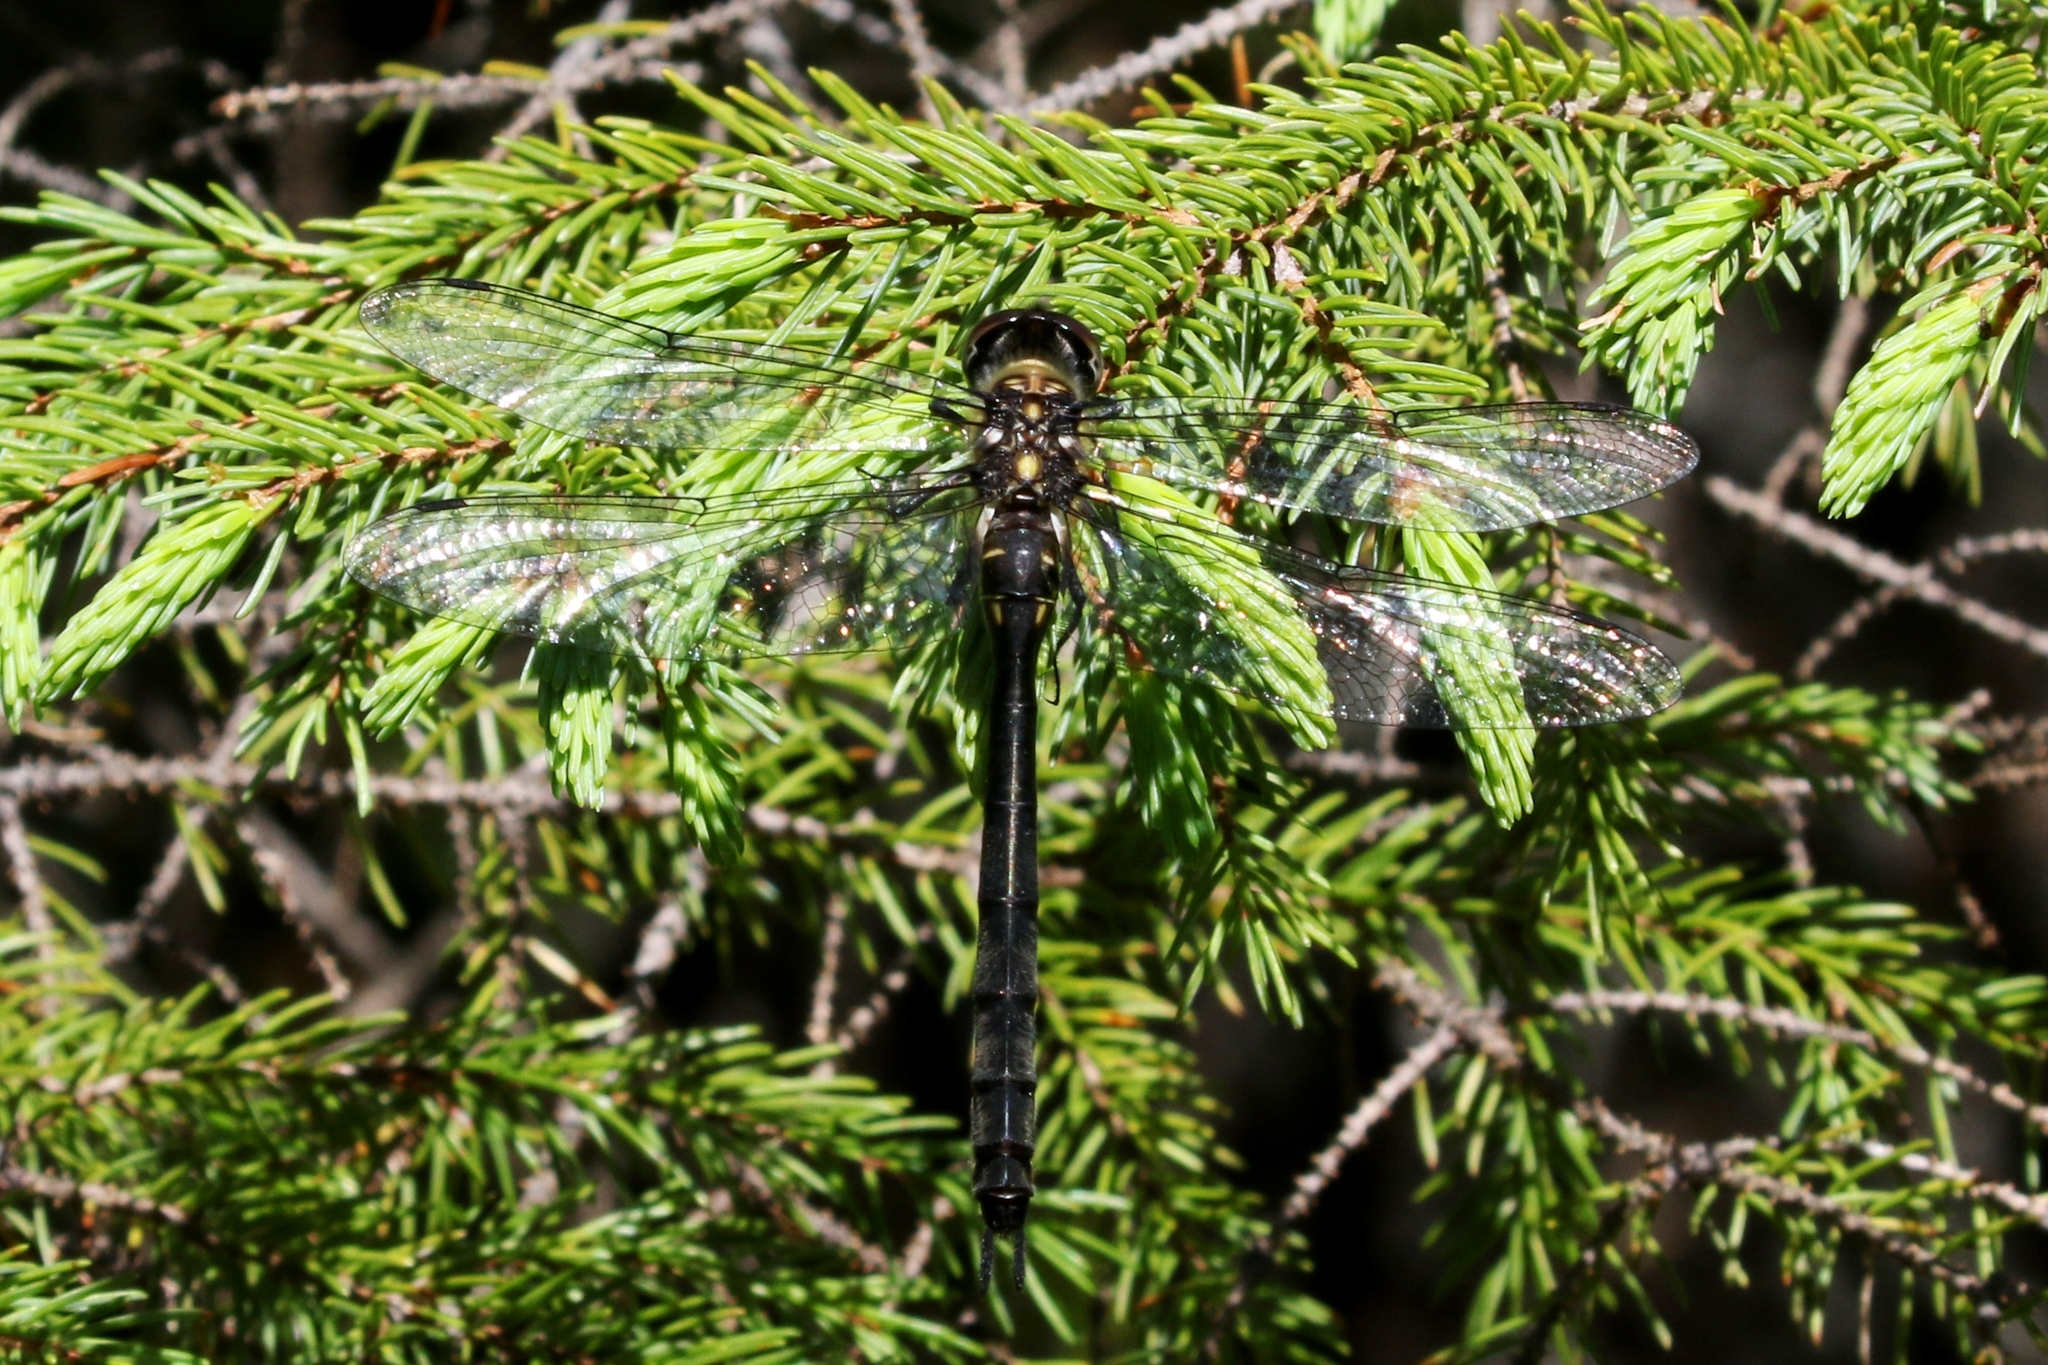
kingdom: Animalia
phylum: Arthropoda
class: Insecta
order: Odonata
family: Corduliidae
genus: Somatochlora
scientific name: Somatochlora elongata
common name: Ski-tipped emerald
